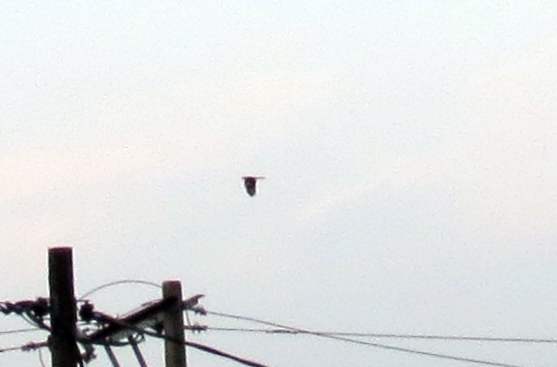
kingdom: Animalia
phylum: Chordata
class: Aves
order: Accipitriformes
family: Accipitridae
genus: Rupornis
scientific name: Rupornis magnirostris
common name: Roadside hawk
